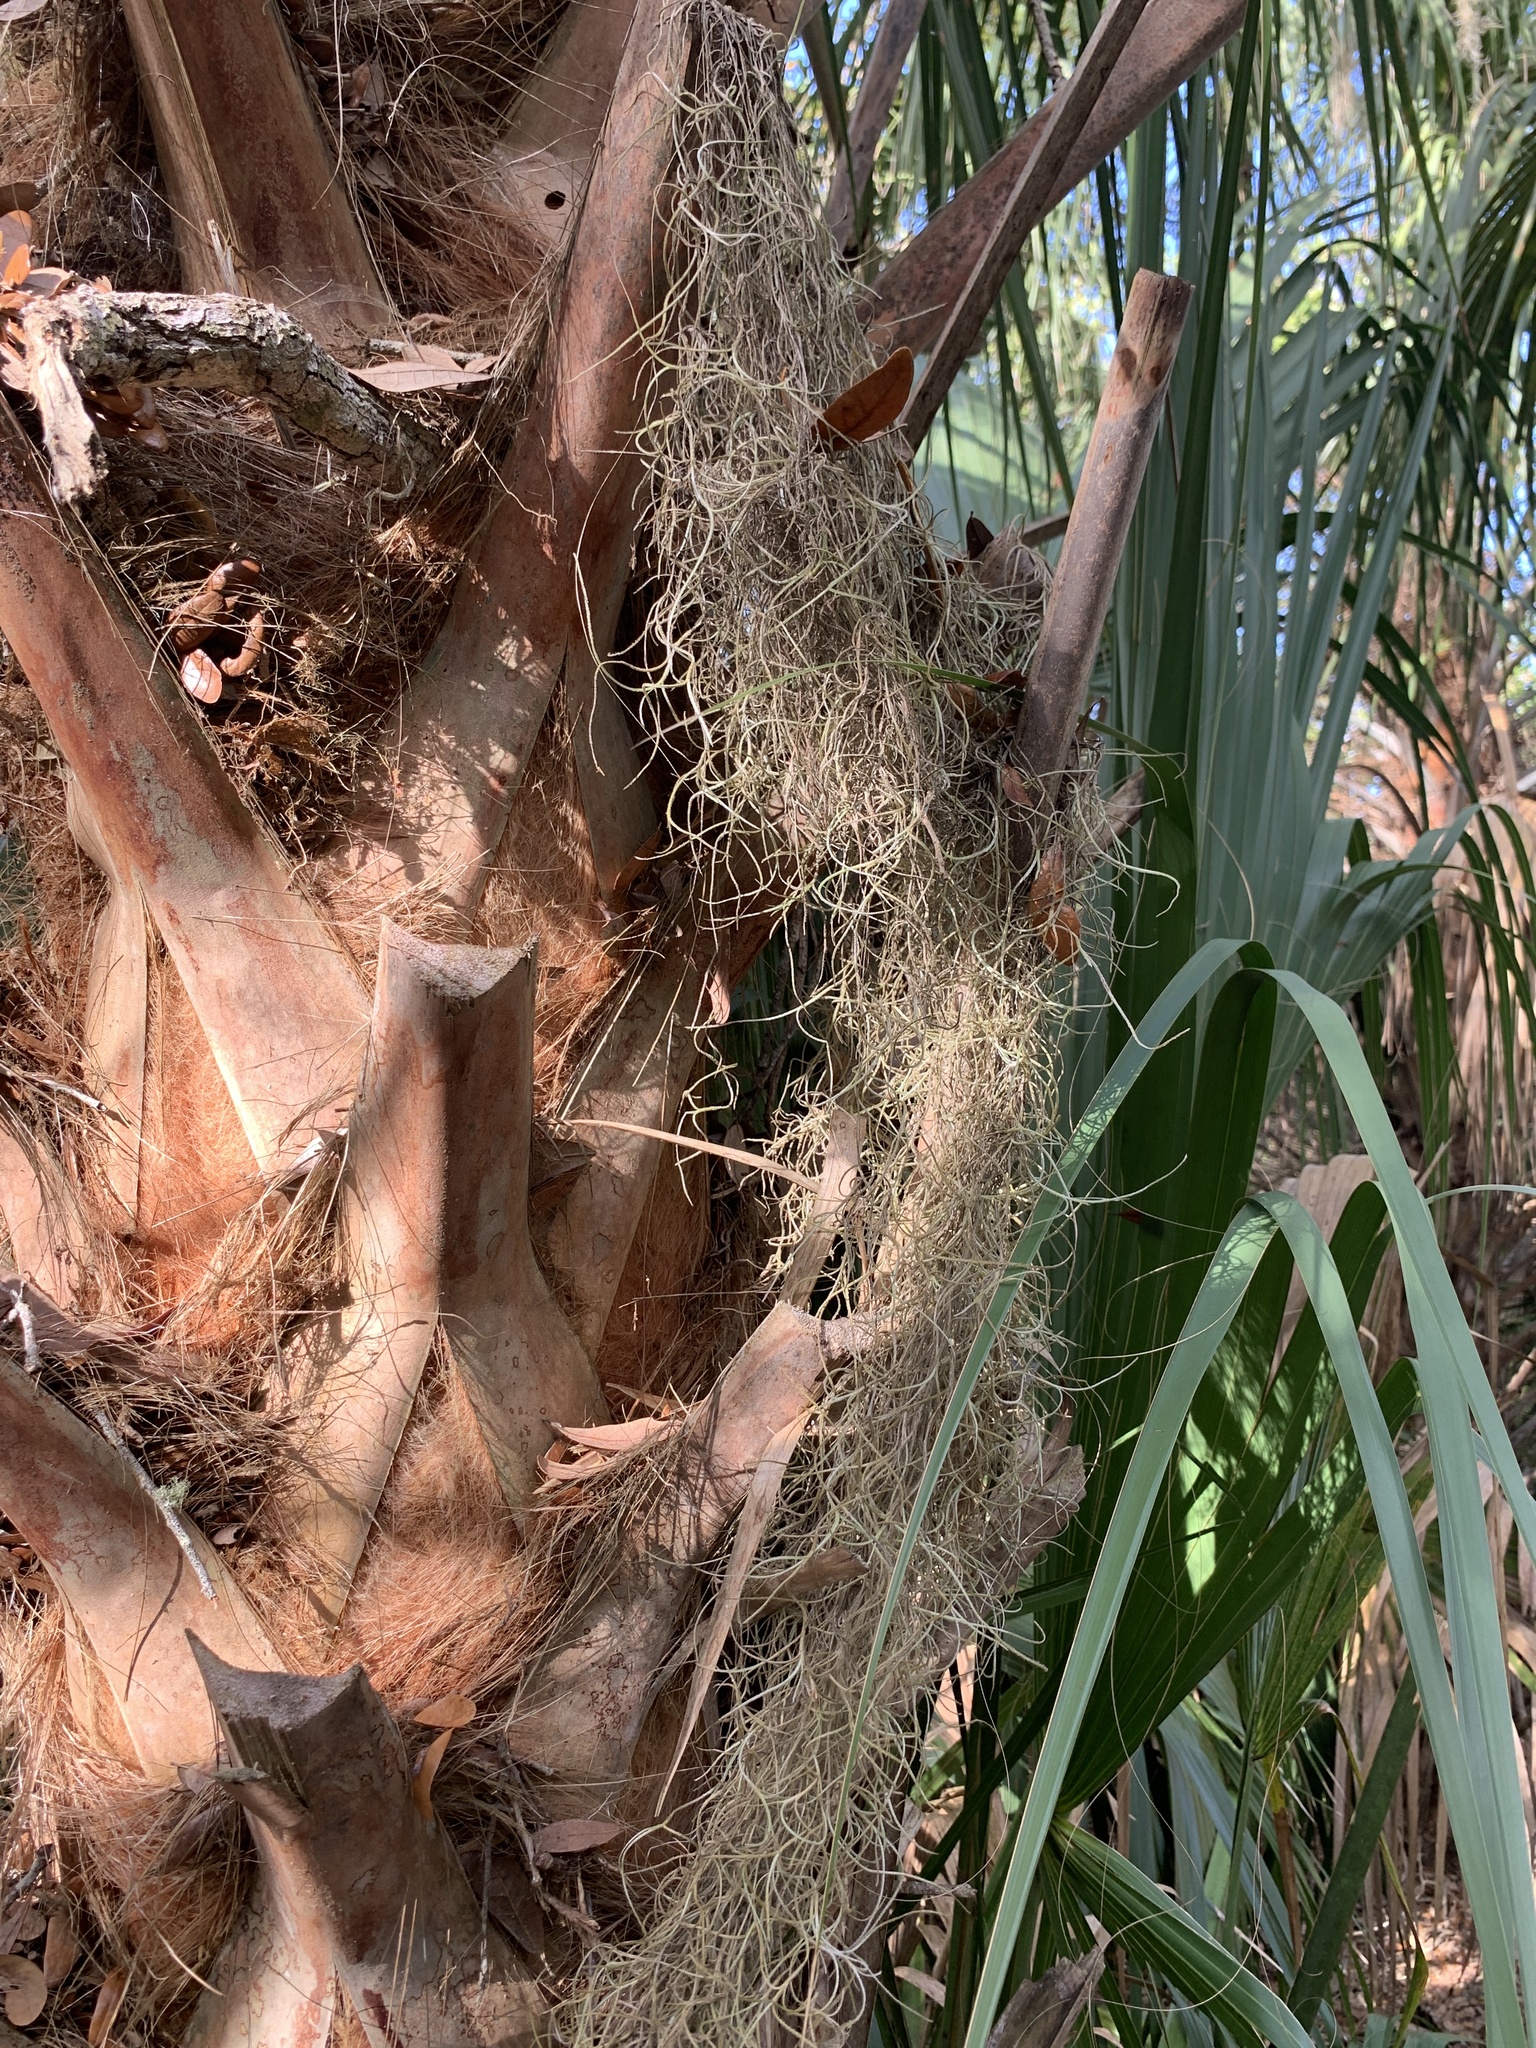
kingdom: Plantae
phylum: Tracheophyta
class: Liliopsida
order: Poales
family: Bromeliaceae
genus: Tillandsia
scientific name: Tillandsia usneoides
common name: Spanish moss
